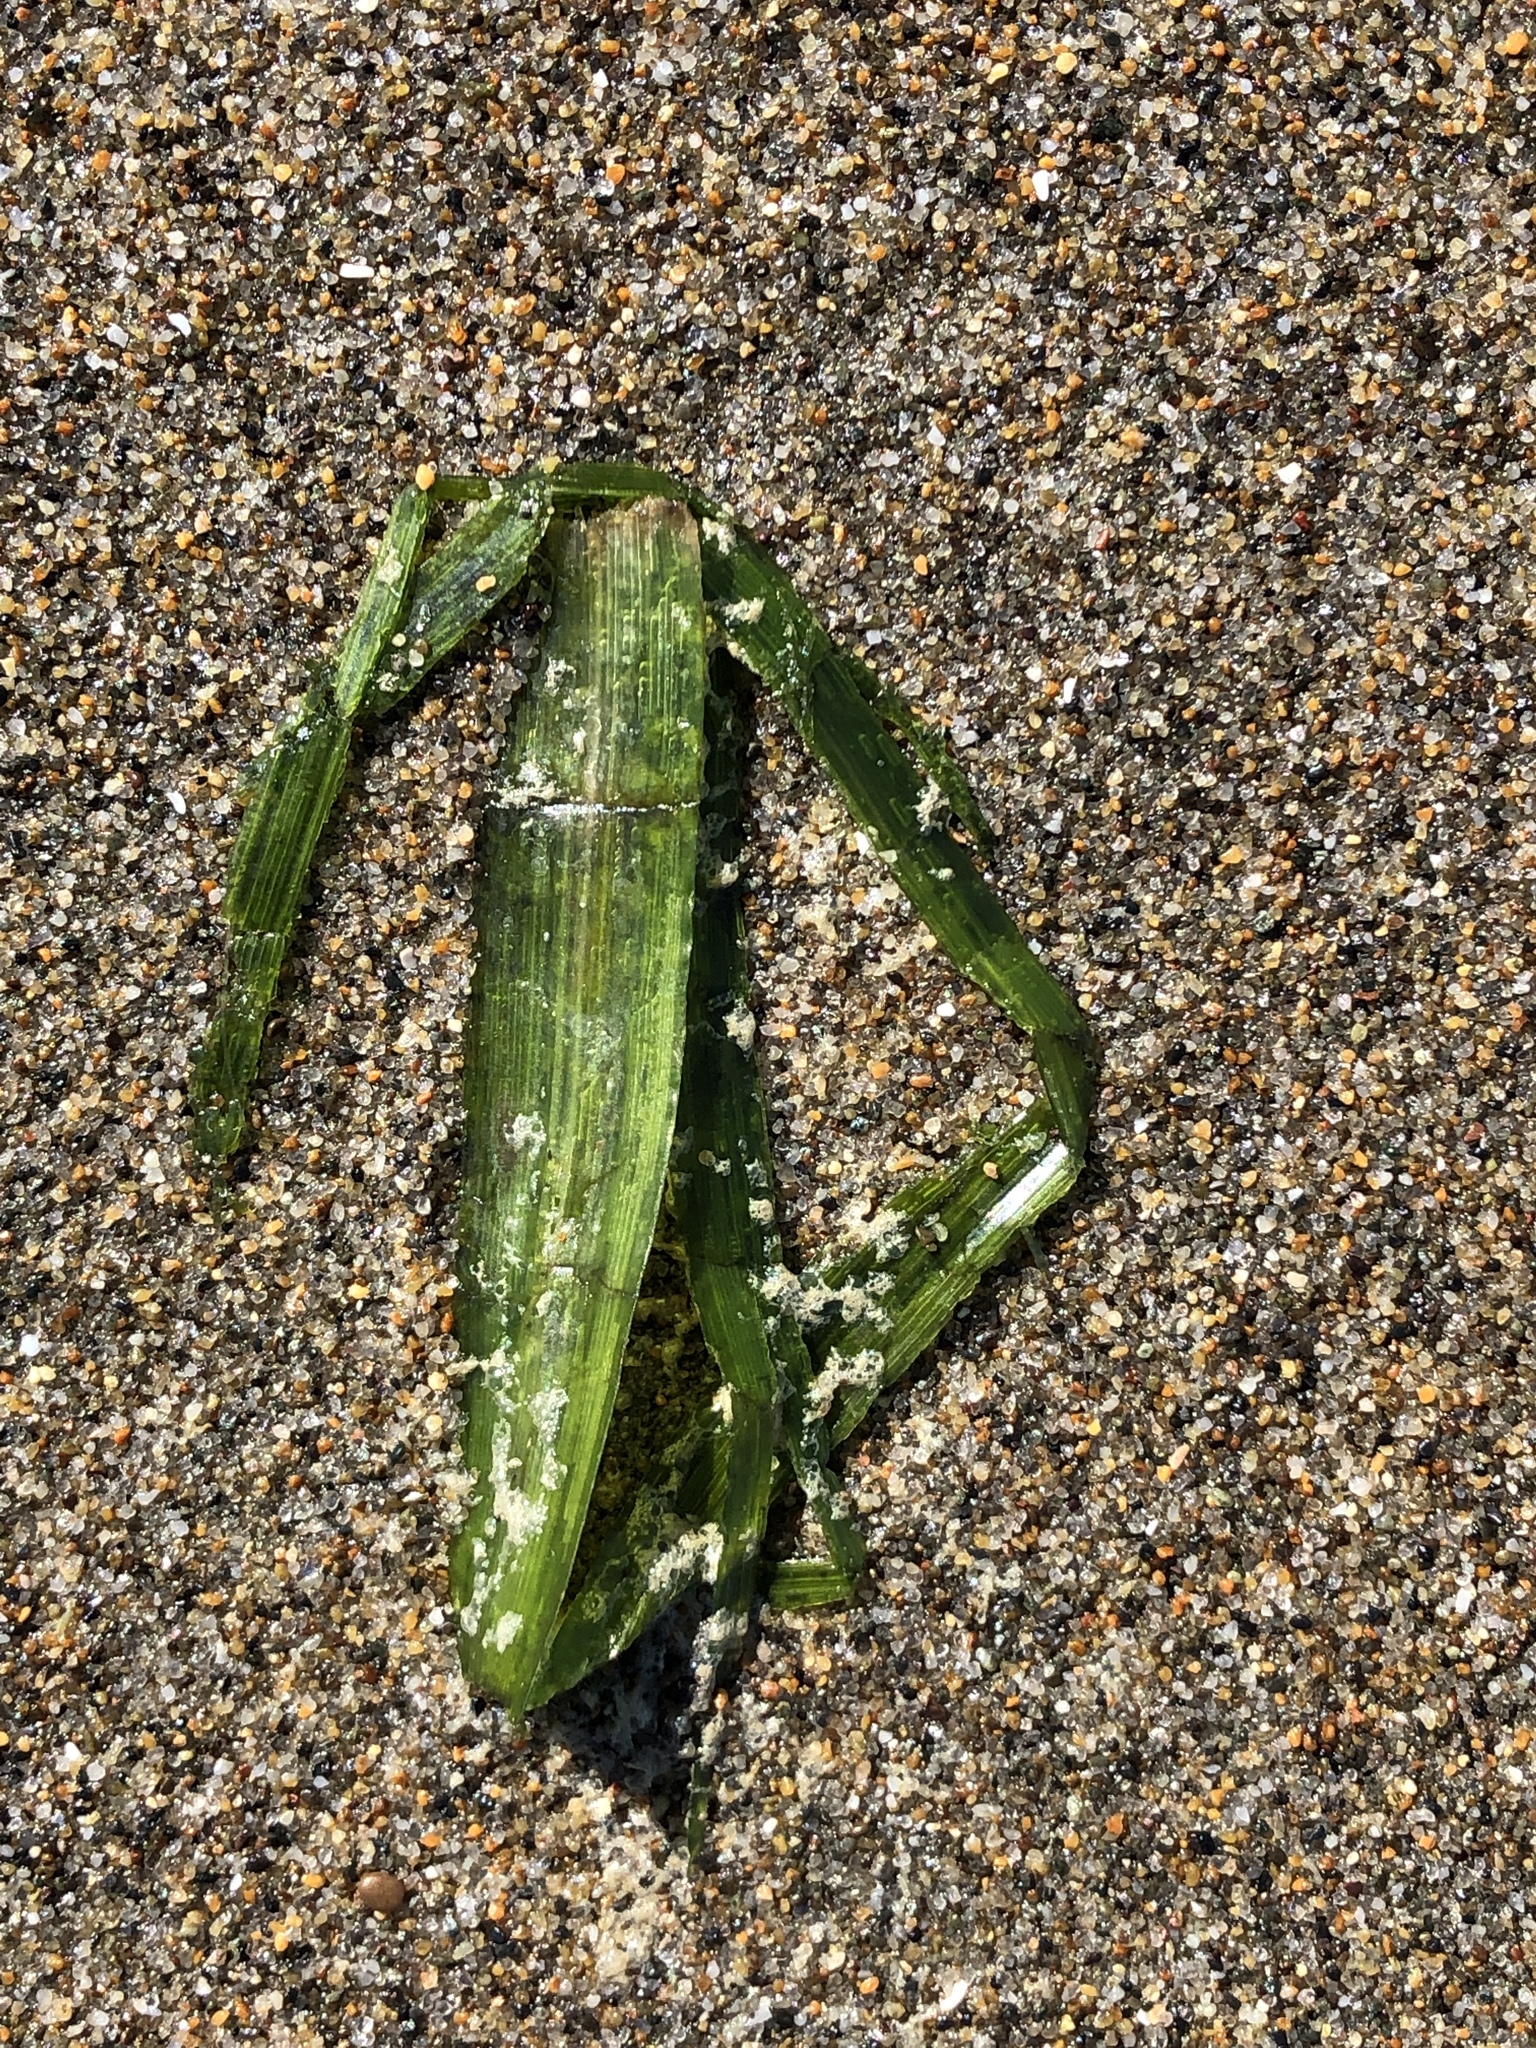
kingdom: Plantae
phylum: Tracheophyta
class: Liliopsida
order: Alismatales
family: Zosteraceae
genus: Zostera
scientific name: Zostera marina
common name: Eelgrass
